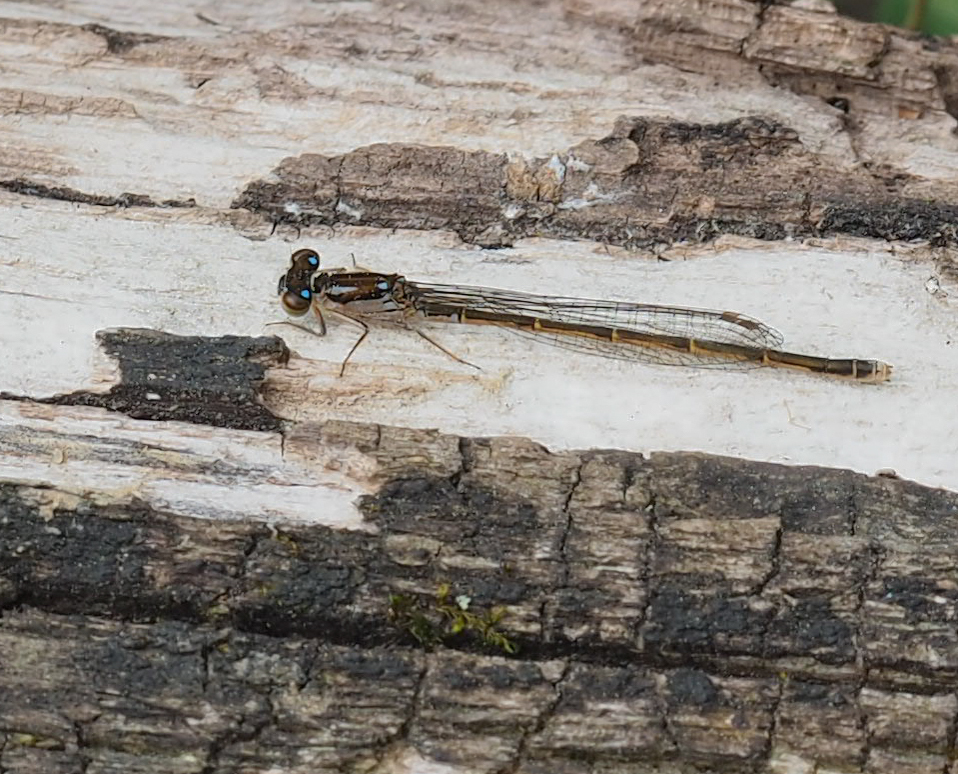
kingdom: Animalia
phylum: Arthropoda
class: Insecta
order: Odonata
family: Coenagrionidae
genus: Ischnura
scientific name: Ischnura posita
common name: Fragile forktail
